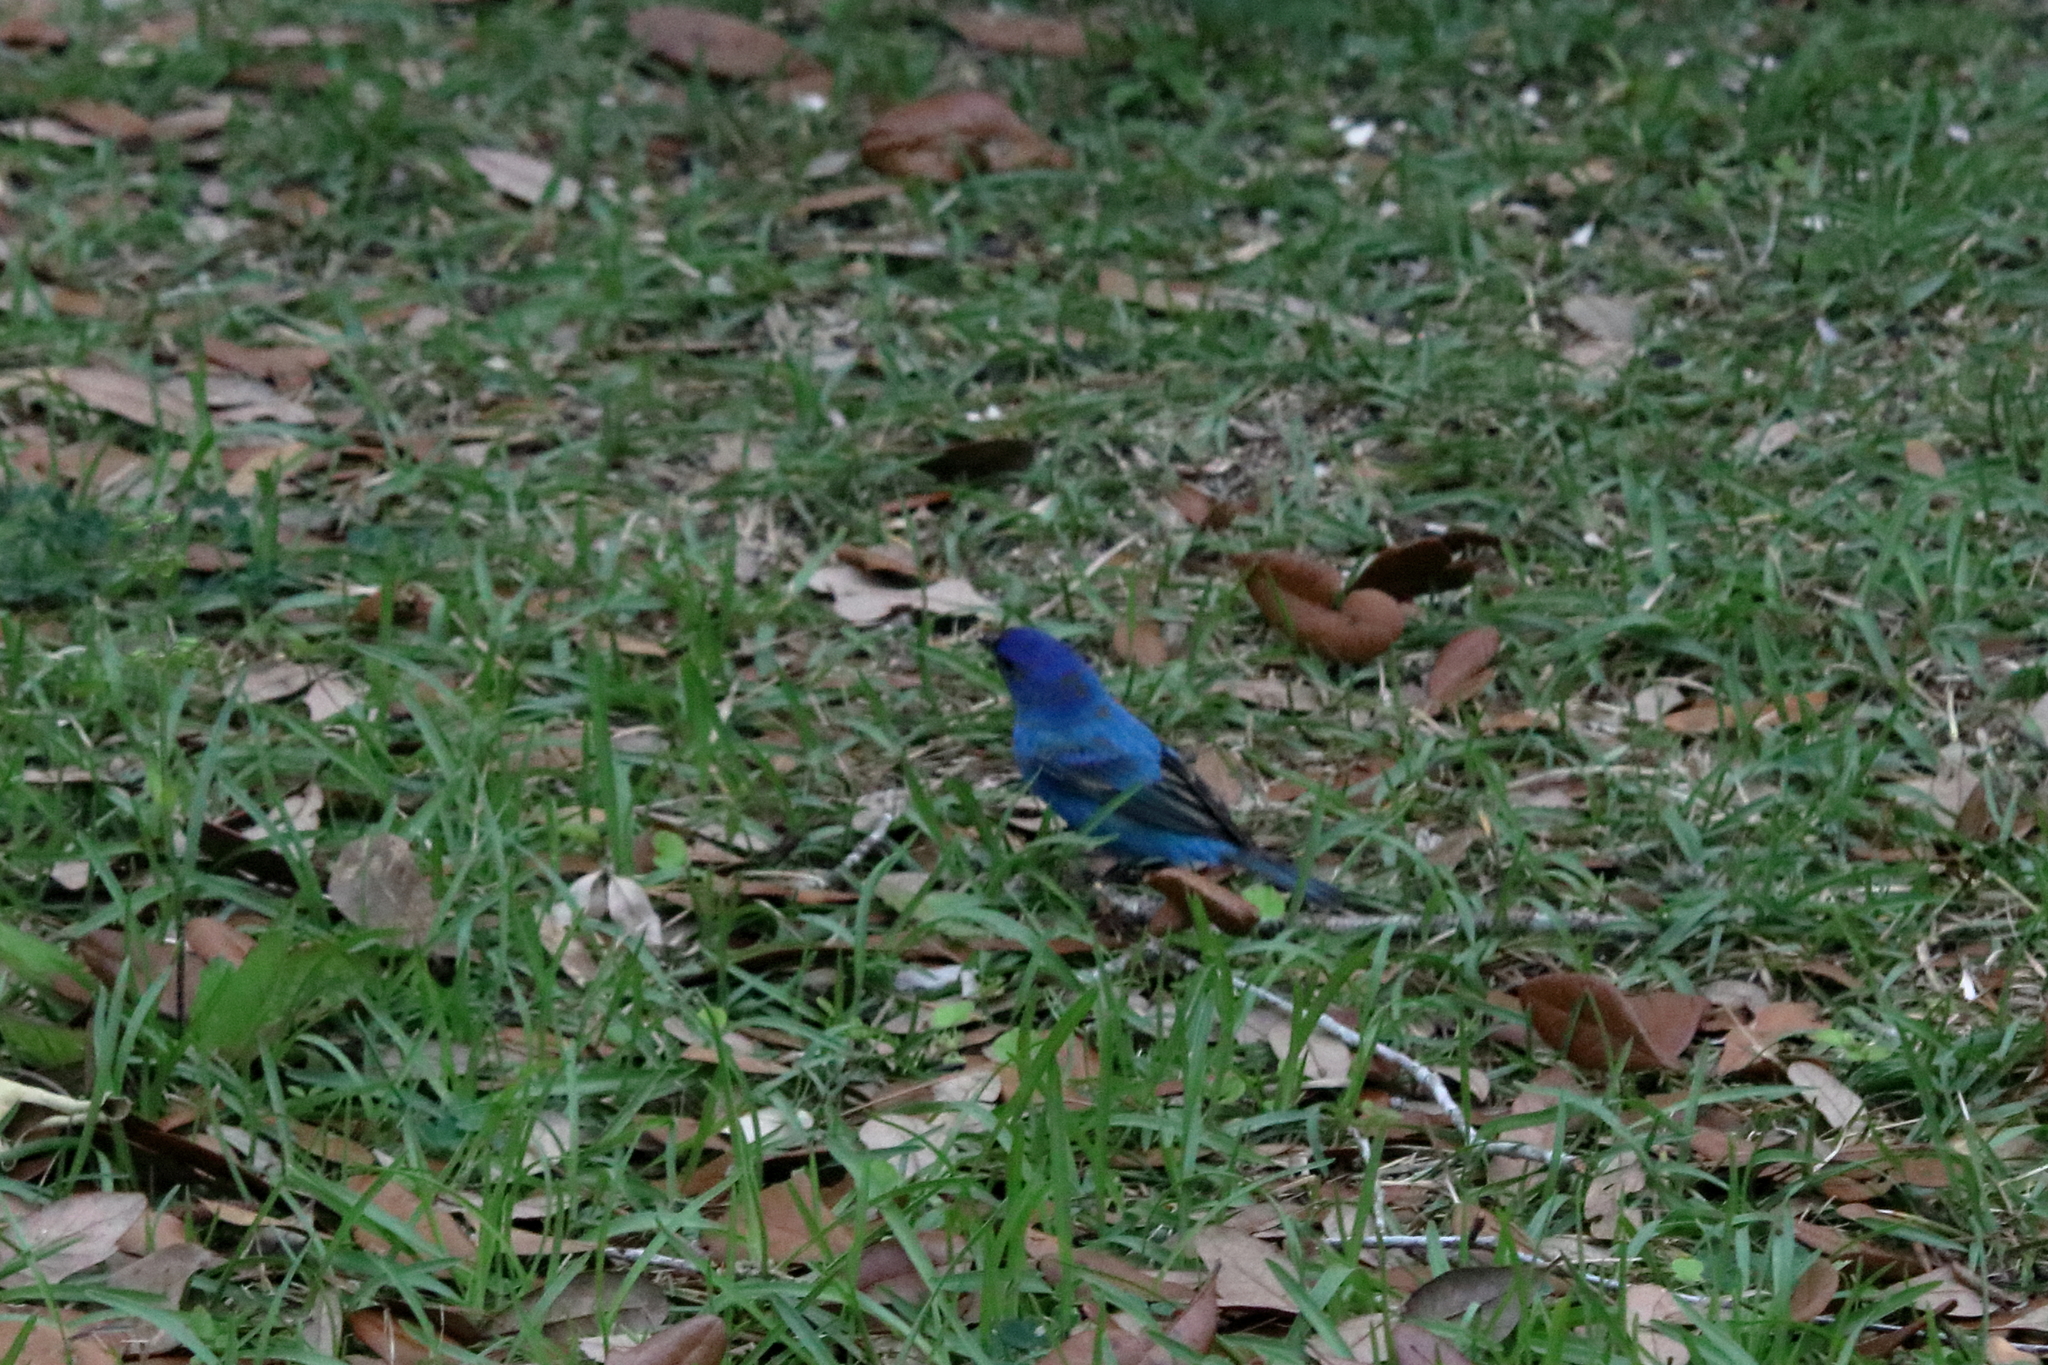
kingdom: Animalia
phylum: Chordata
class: Aves
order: Passeriformes
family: Cardinalidae
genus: Passerina
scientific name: Passerina caerulea
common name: Blue grosbeak
